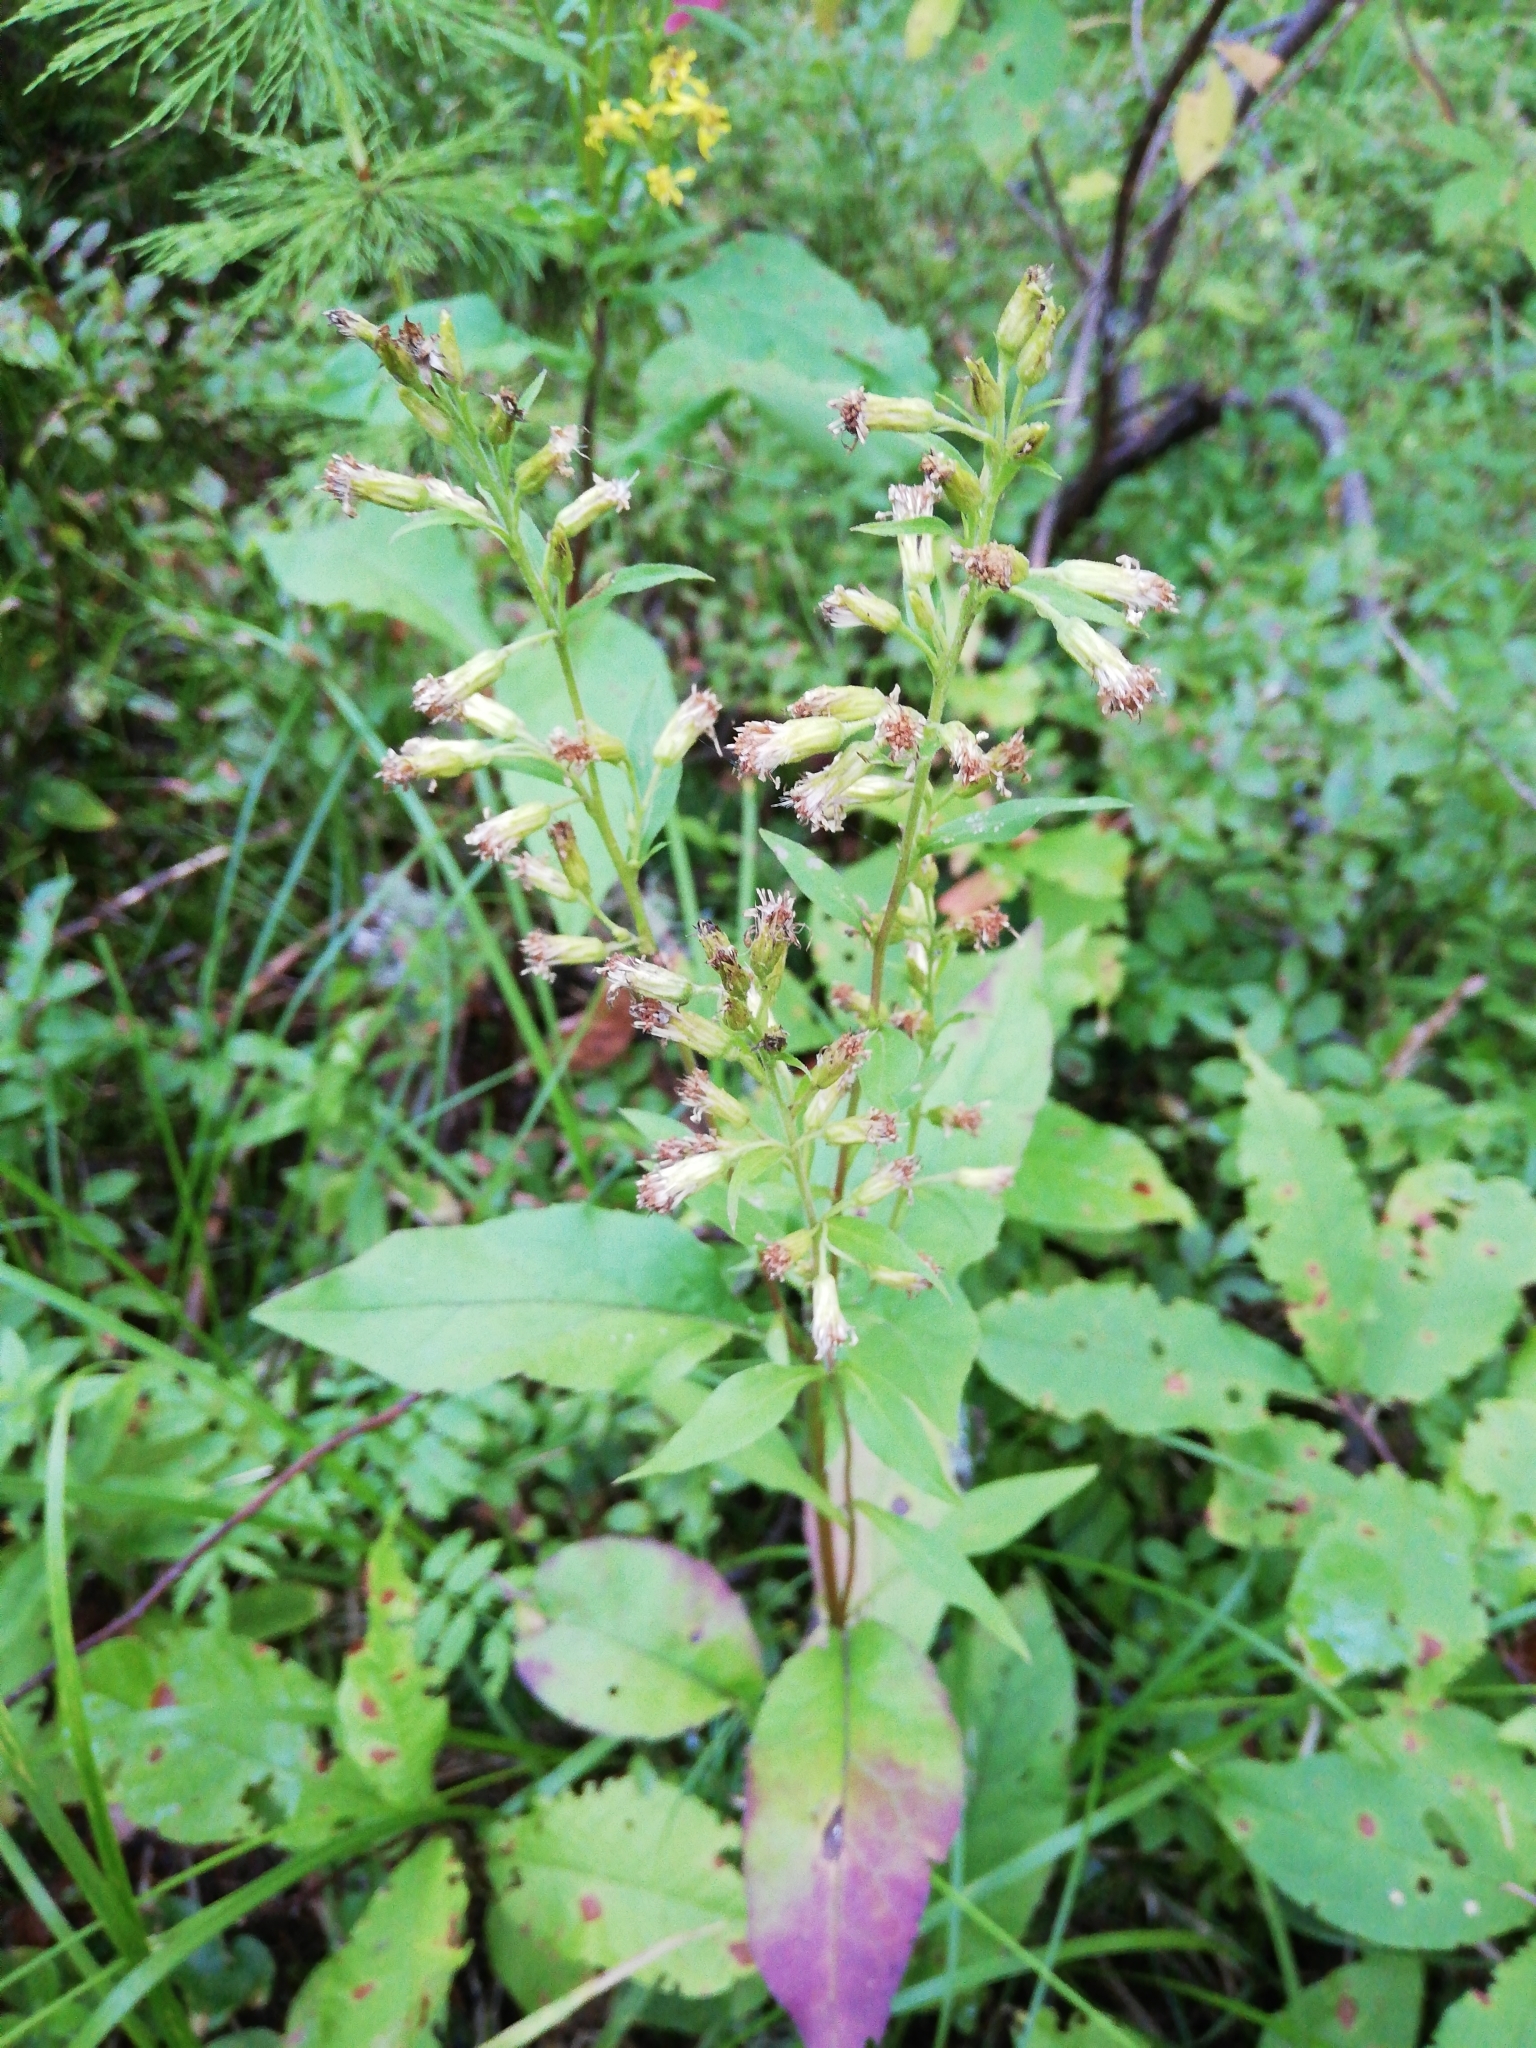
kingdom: Plantae
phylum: Tracheophyta
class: Magnoliopsida
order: Asterales
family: Asteraceae
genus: Solidago
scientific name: Solidago dahurica
